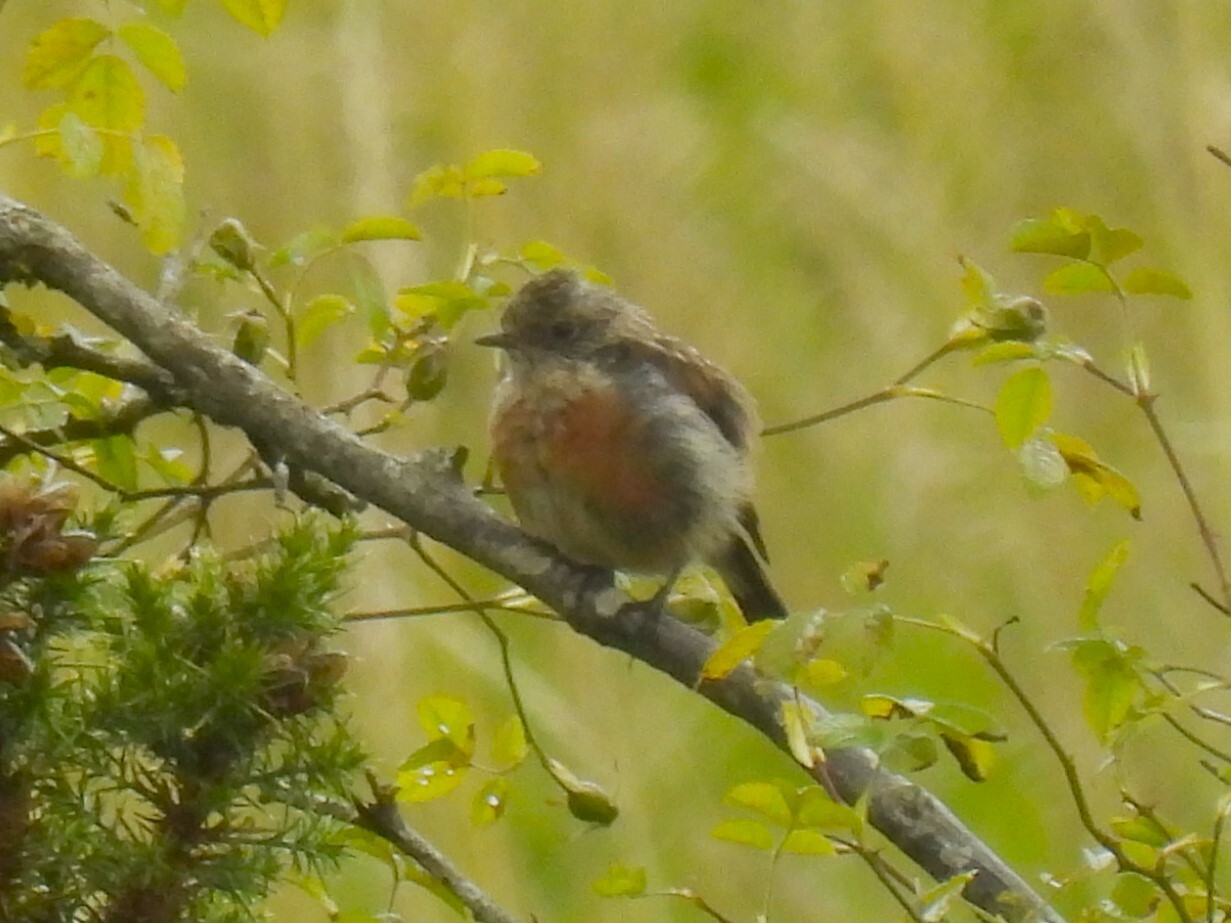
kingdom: Animalia
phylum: Chordata
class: Aves
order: Passeriformes
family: Muscicapidae
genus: Saxicola
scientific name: Saxicola rubicola
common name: European stonechat
